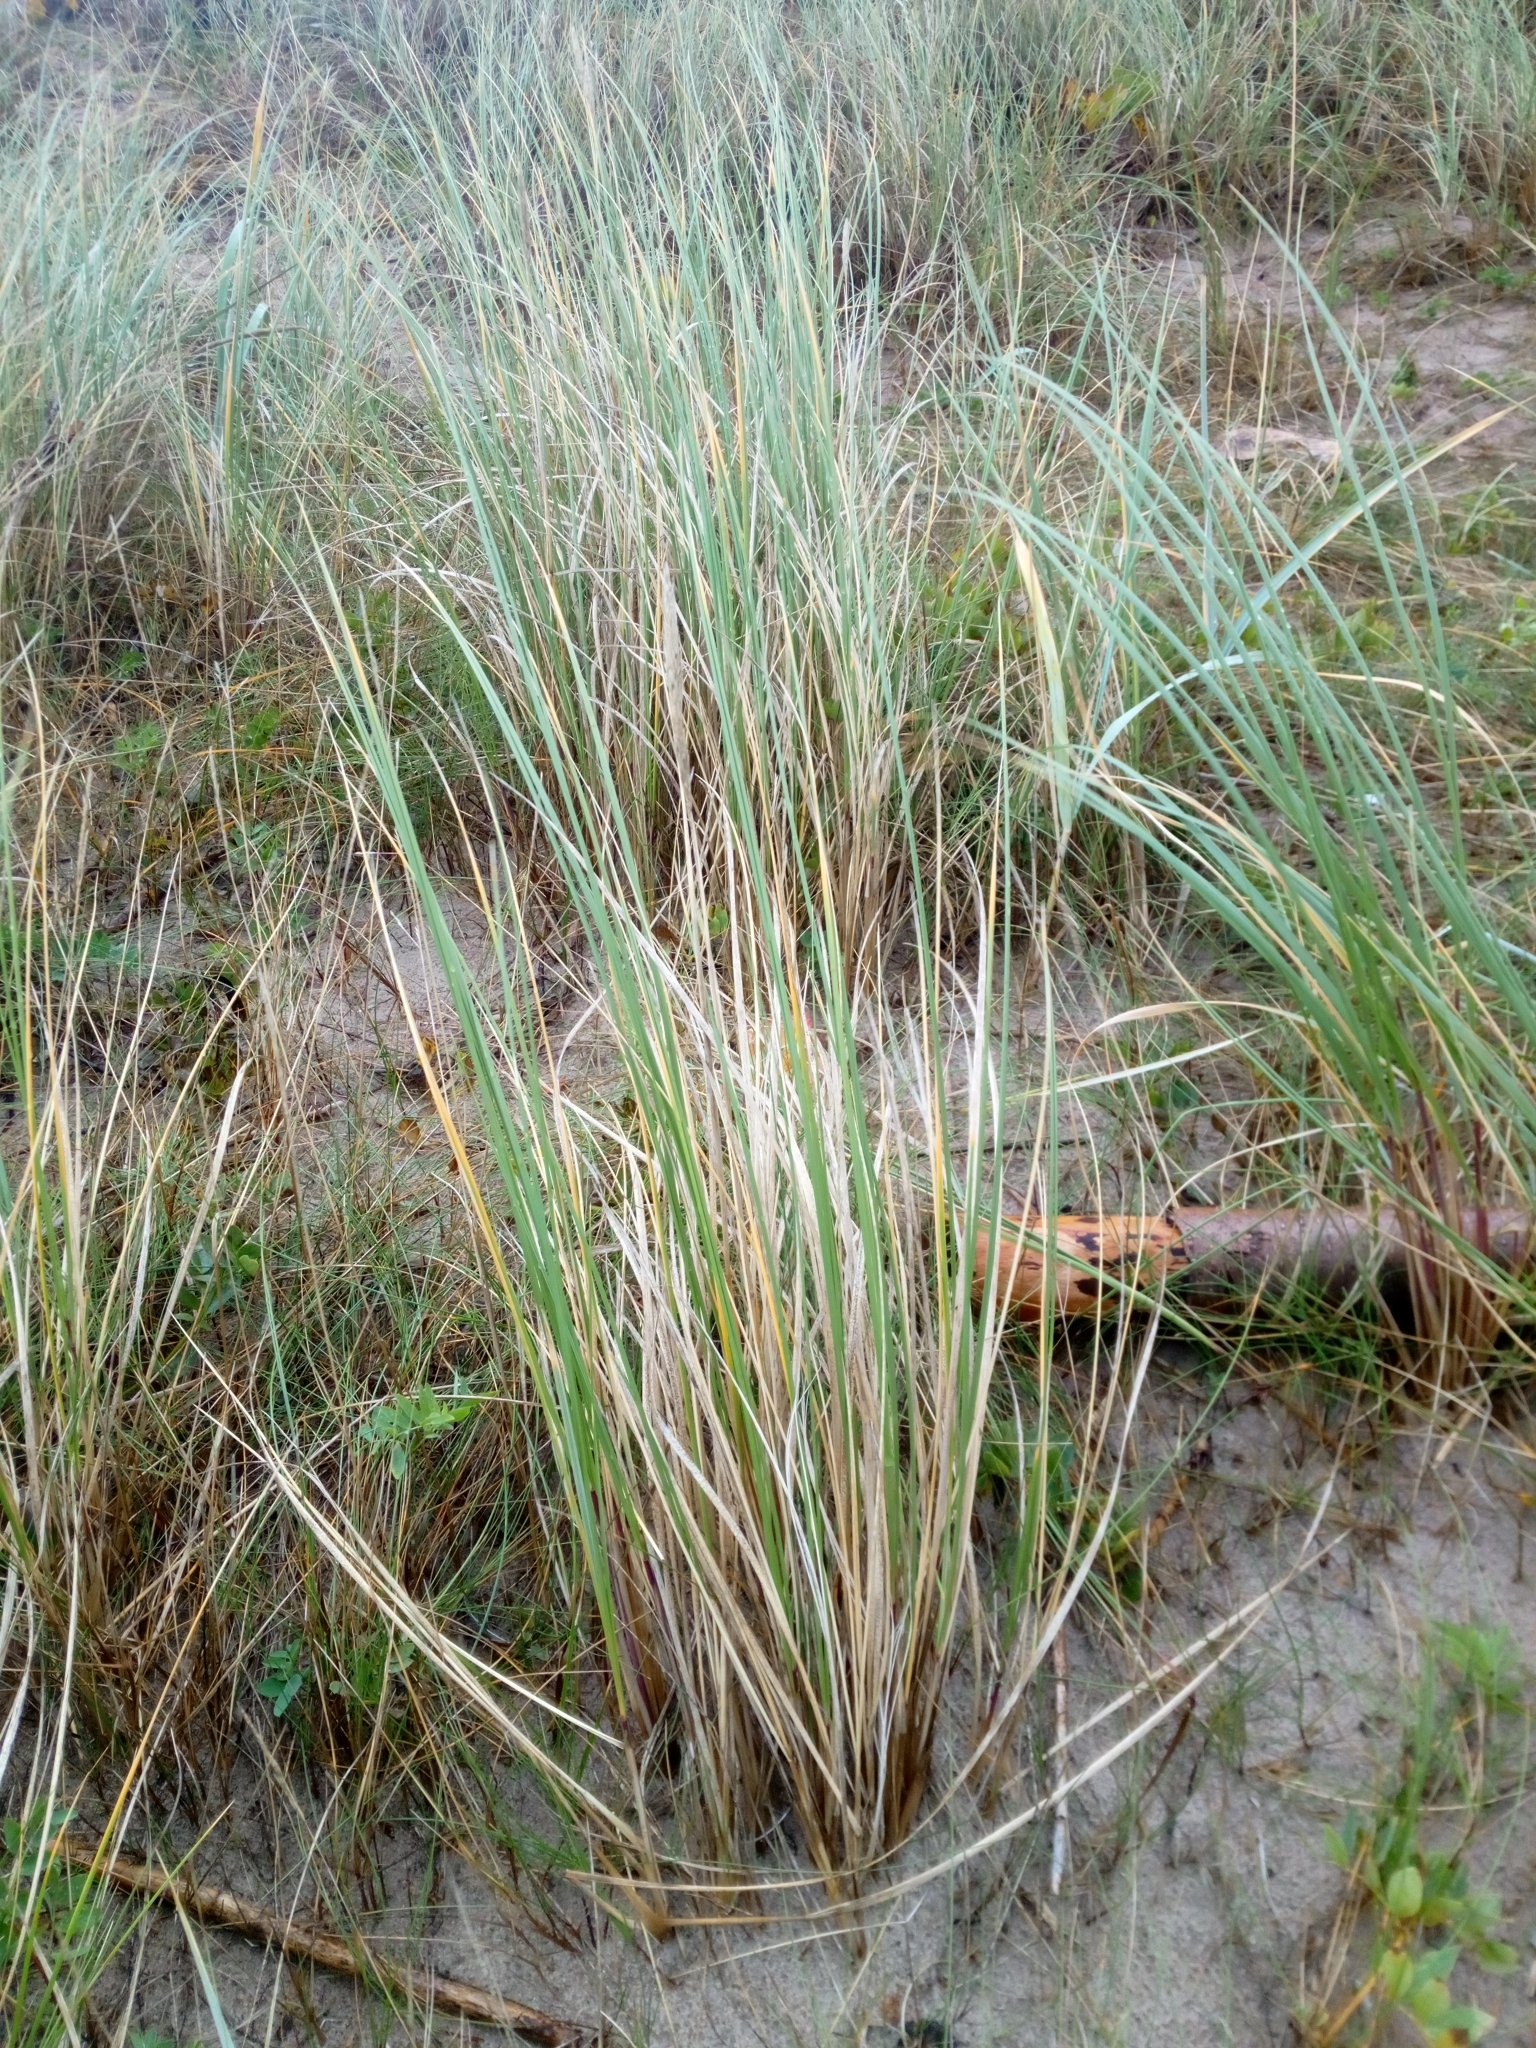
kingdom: Plantae
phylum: Tracheophyta
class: Liliopsida
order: Poales
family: Poaceae
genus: Calamagrostis
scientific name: Calamagrostis arenaria
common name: European beachgrass
